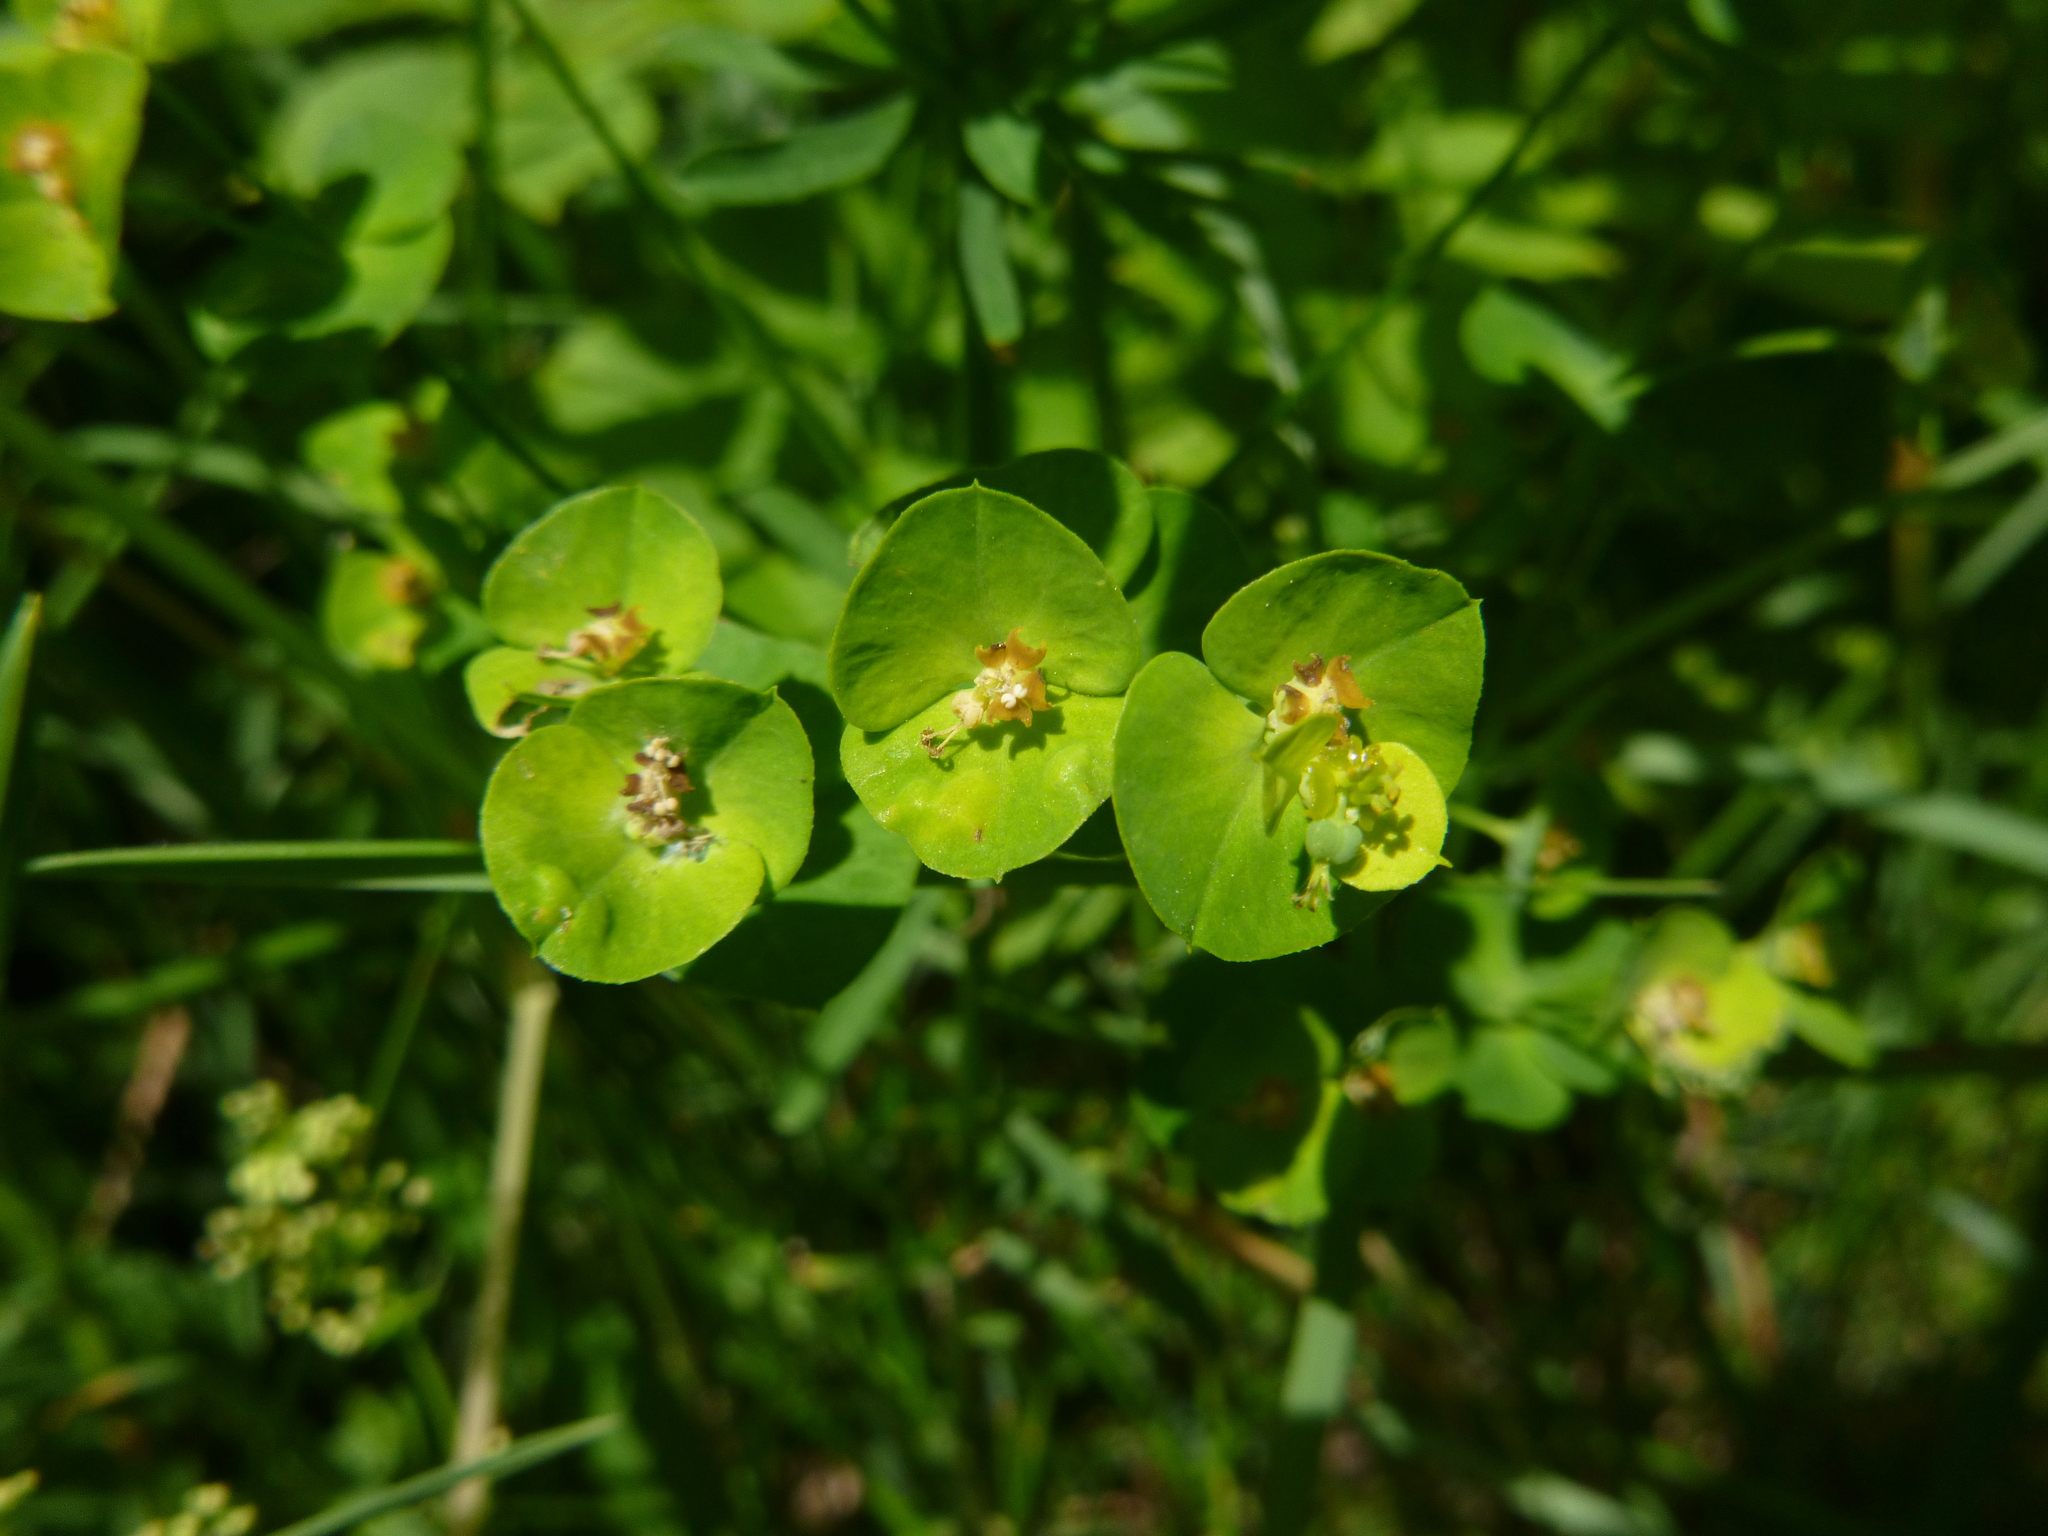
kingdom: Plantae
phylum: Tracheophyta
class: Magnoliopsida
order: Malpighiales
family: Euphorbiaceae
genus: Euphorbia
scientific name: Euphorbia esula
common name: Leafy spurge
